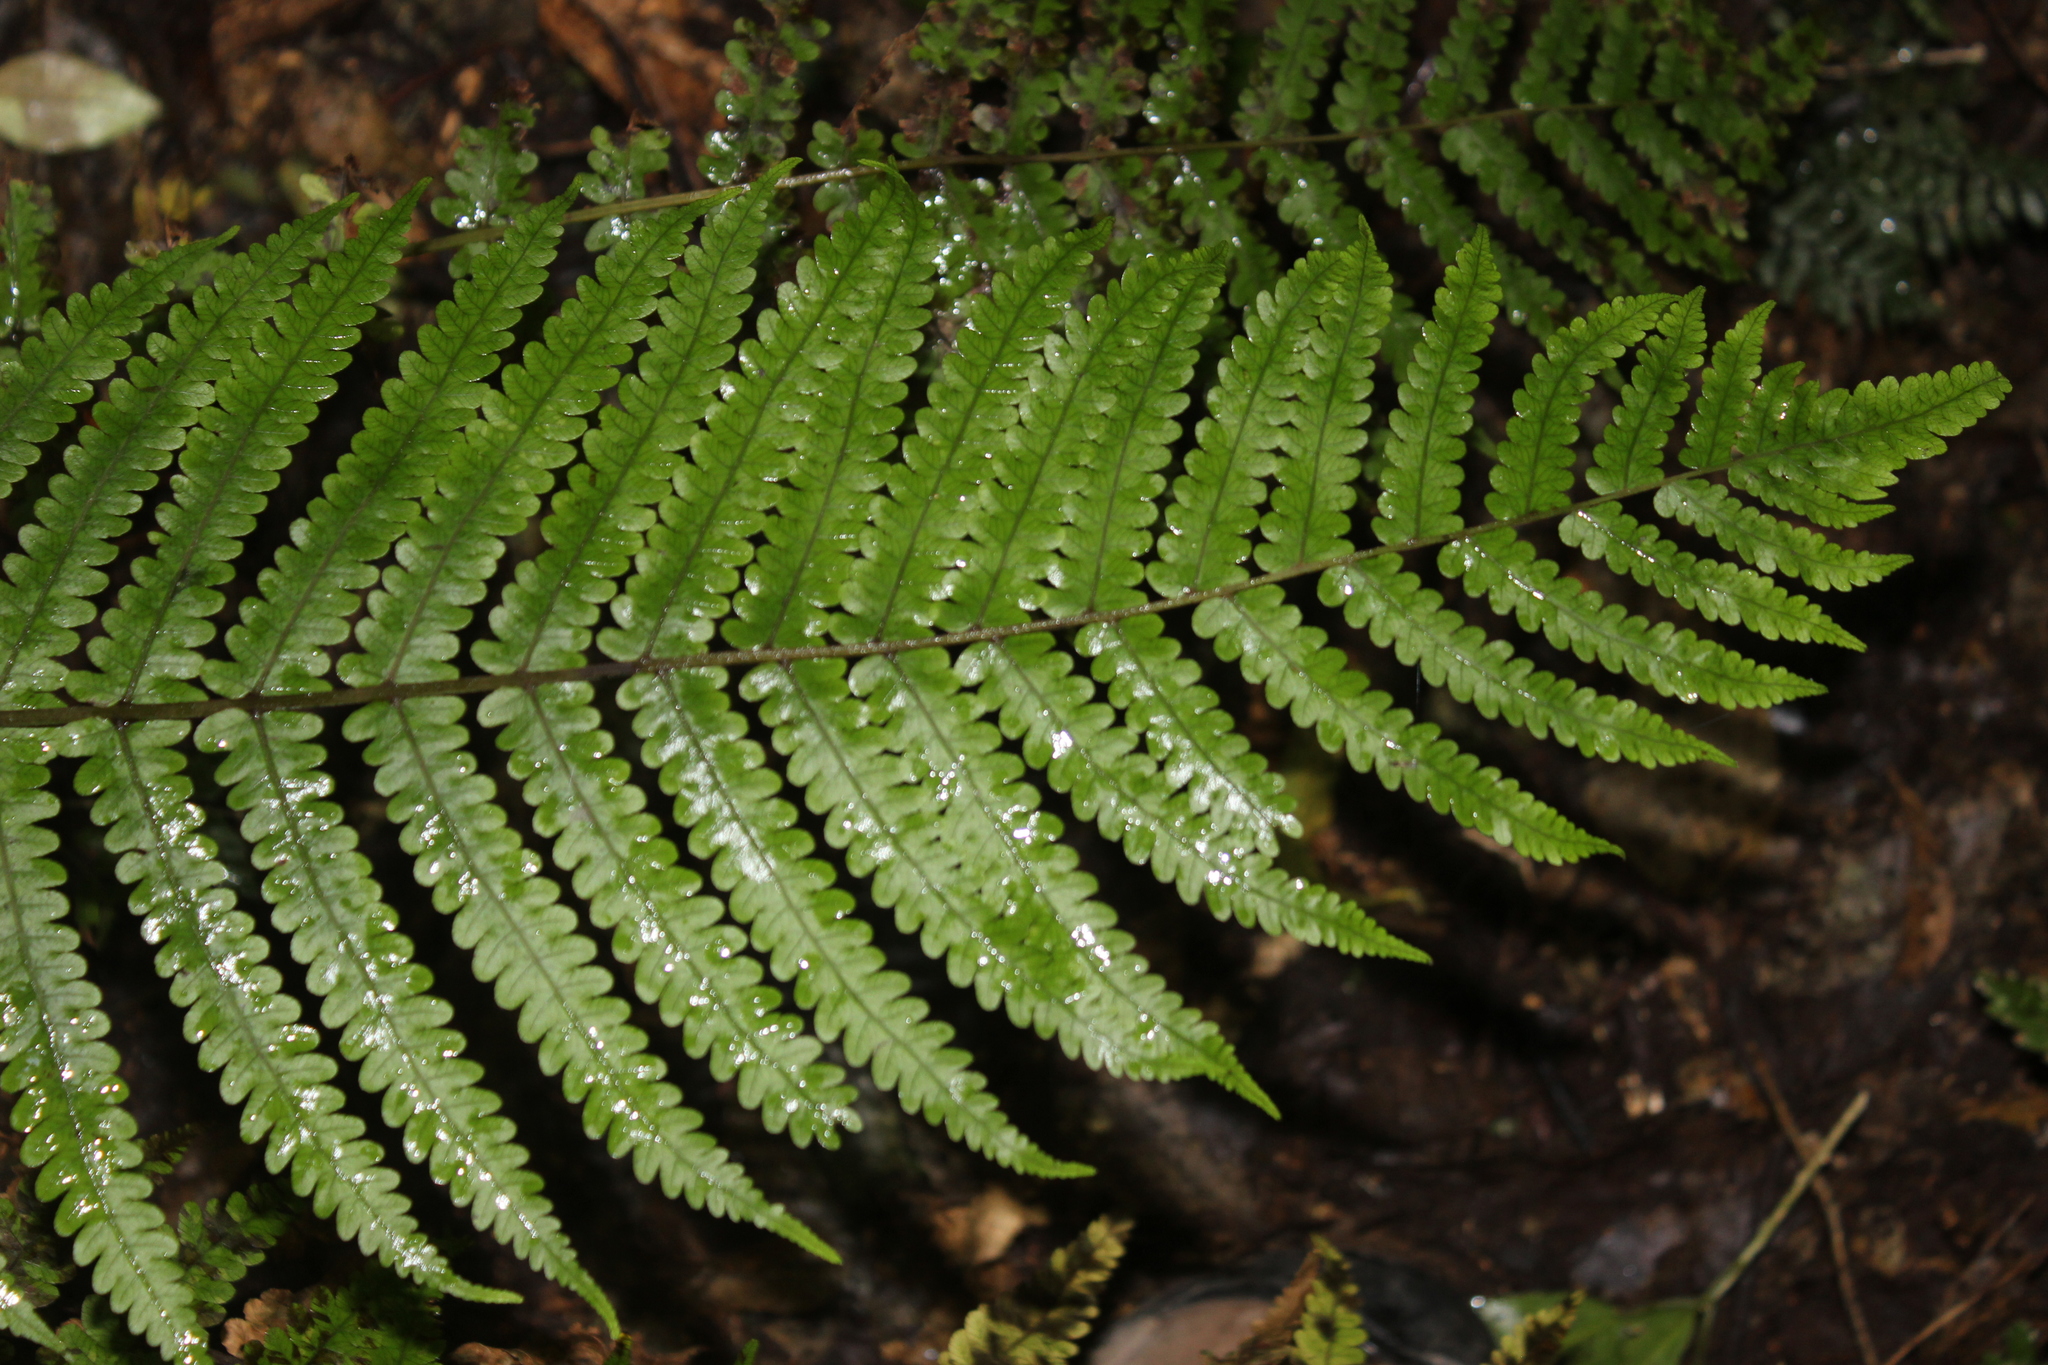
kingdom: Plantae
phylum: Tracheophyta
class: Polypodiopsida
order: Polypodiales
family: Thelypteridaceae
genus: Pakau
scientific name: Pakau pennigera
